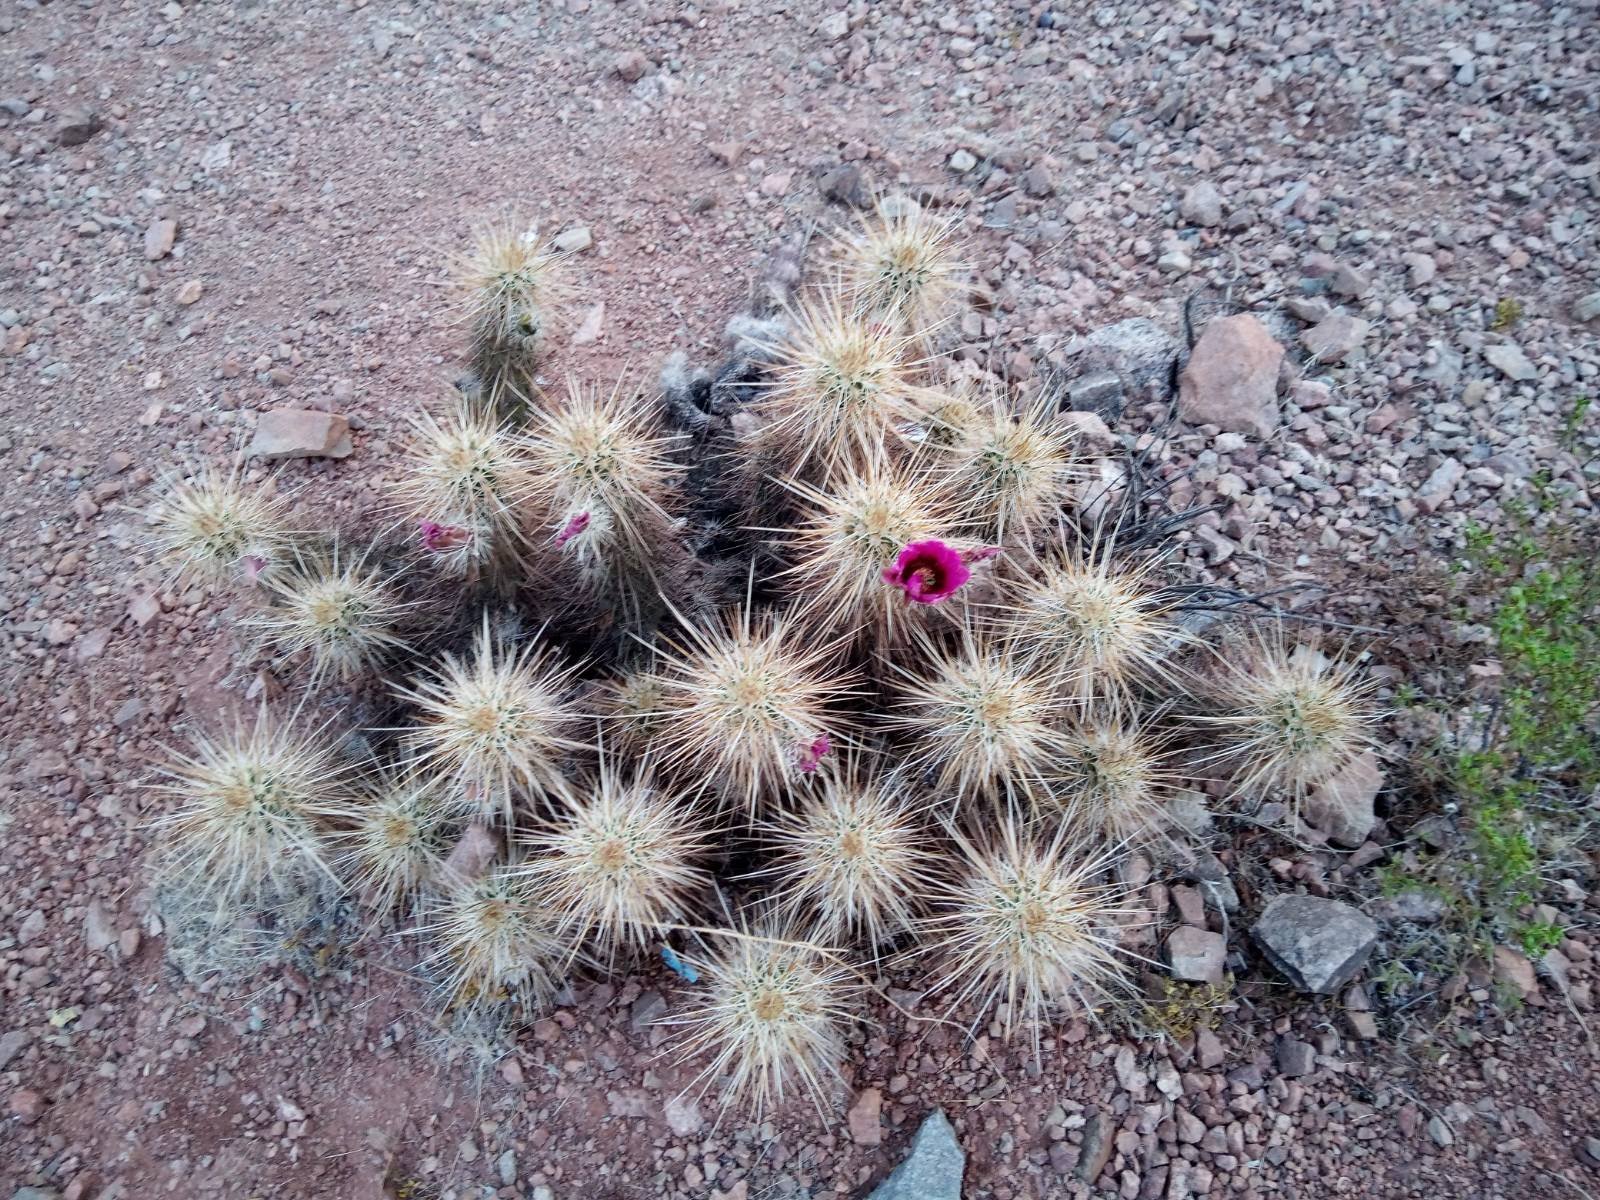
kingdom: Plantae
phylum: Tracheophyta
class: Magnoliopsida
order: Caryophyllales
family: Cactaceae
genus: Echinocereus
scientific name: Echinocereus engelmannii
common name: Engelmann's hedgehog cactus
